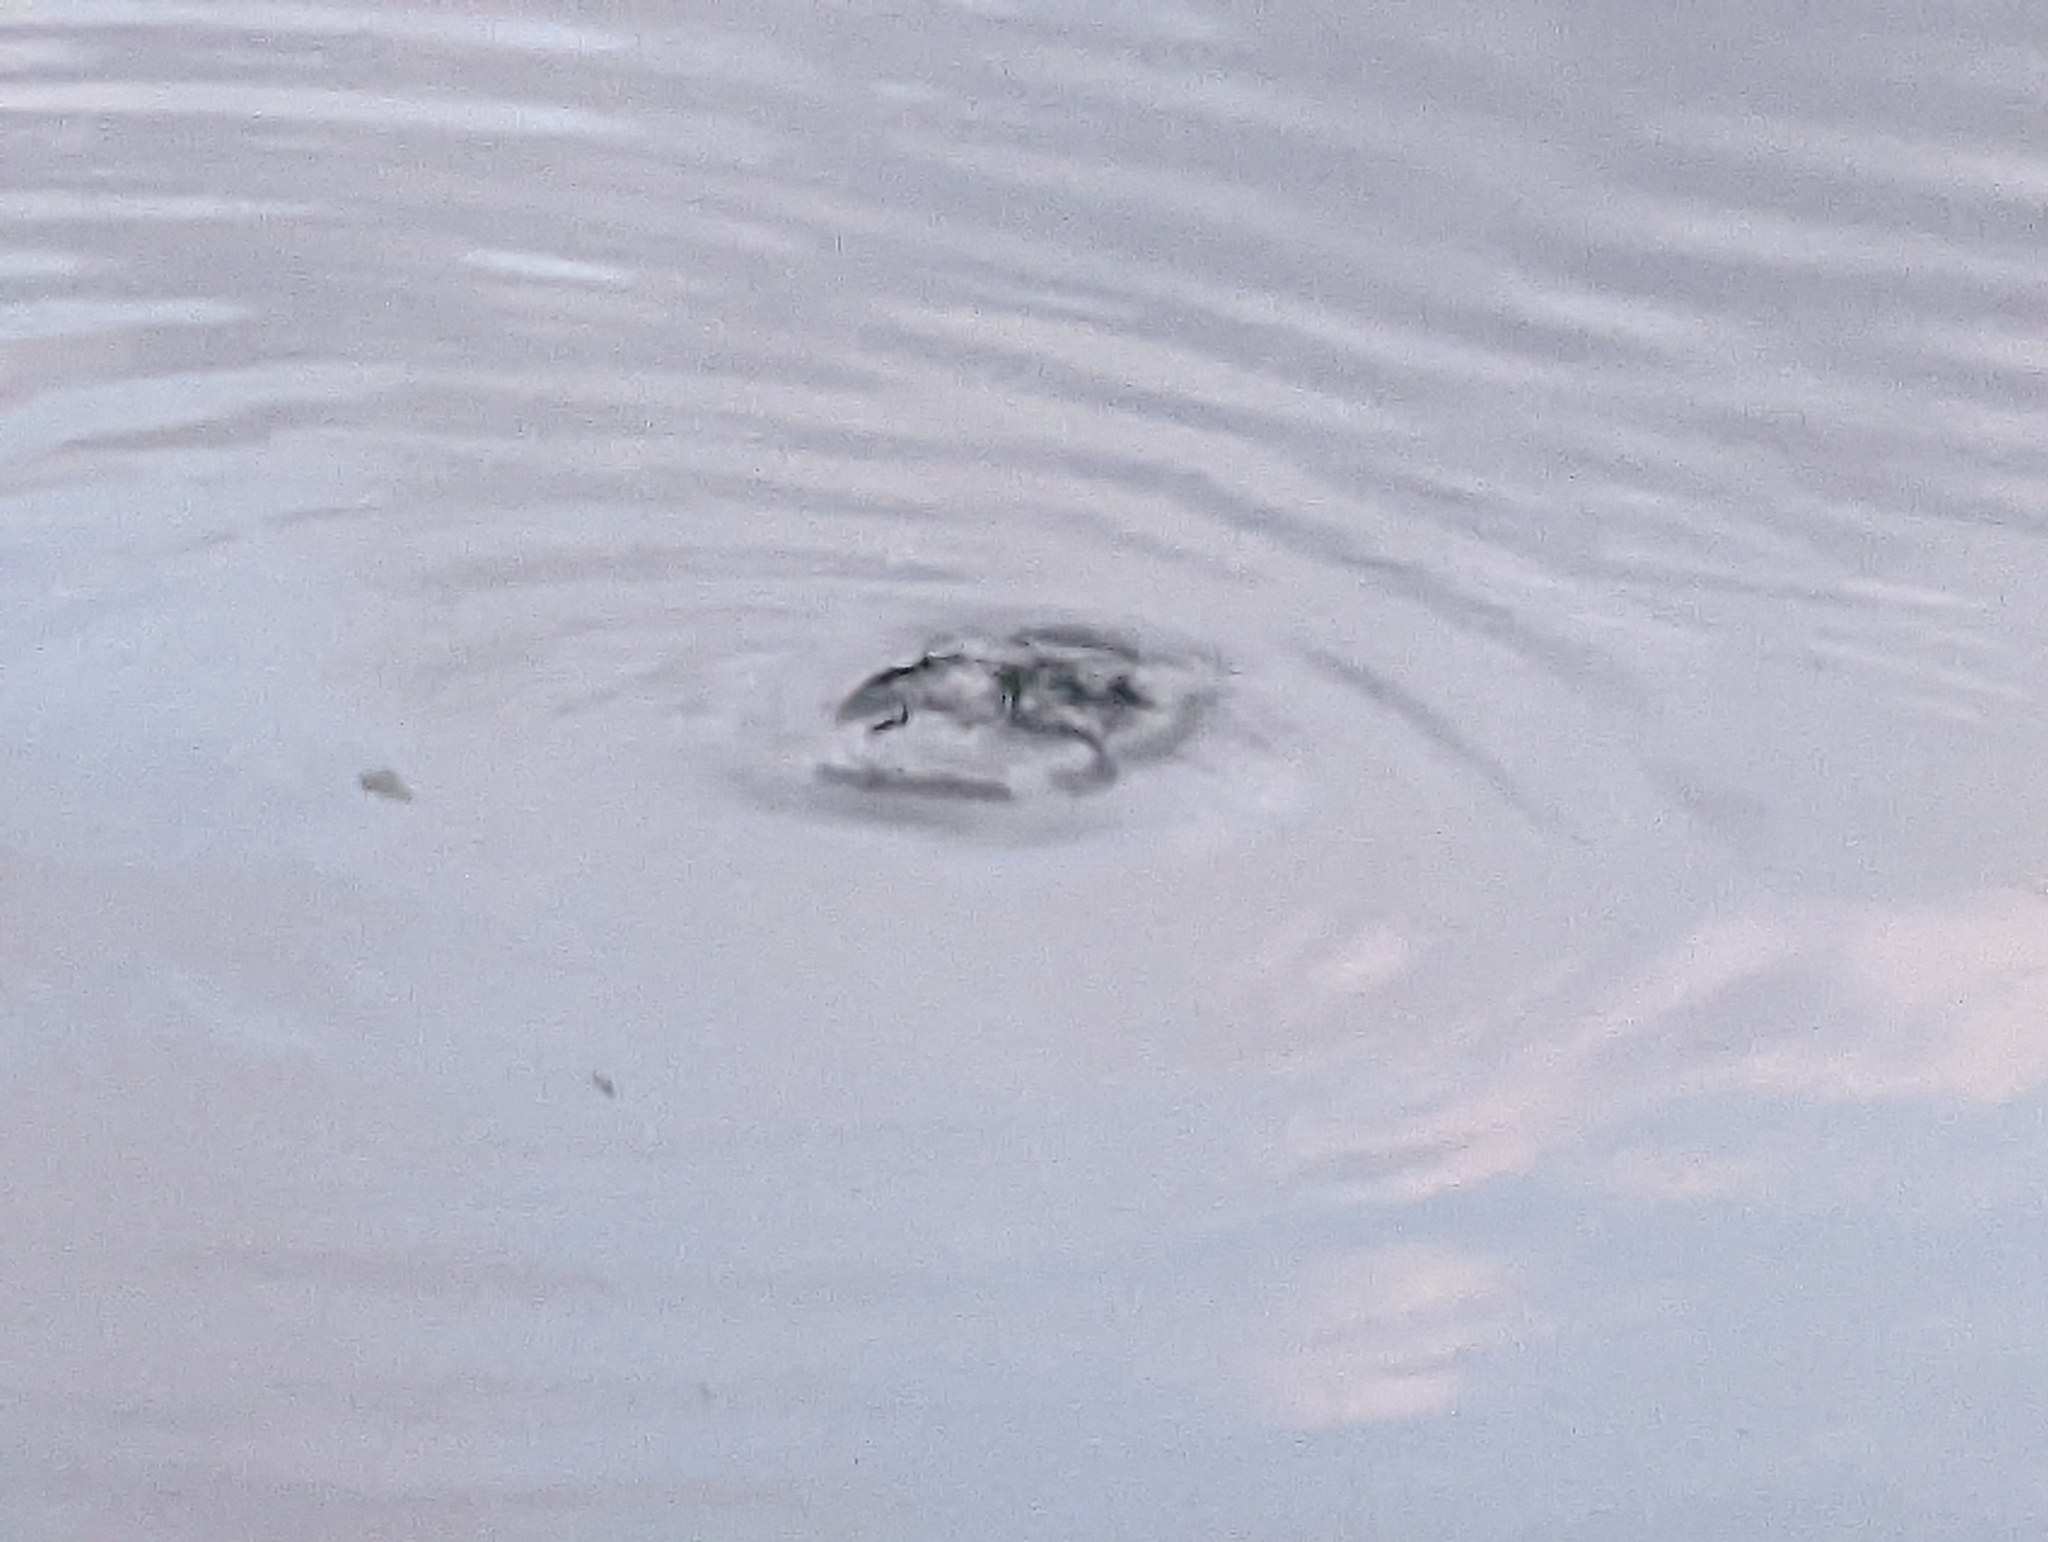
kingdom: Animalia
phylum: Chordata
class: Aves
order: Podicipediformes
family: Podicipedidae
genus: Tachybaptus
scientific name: Tachybaptus ruficollis
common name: Little grebe
